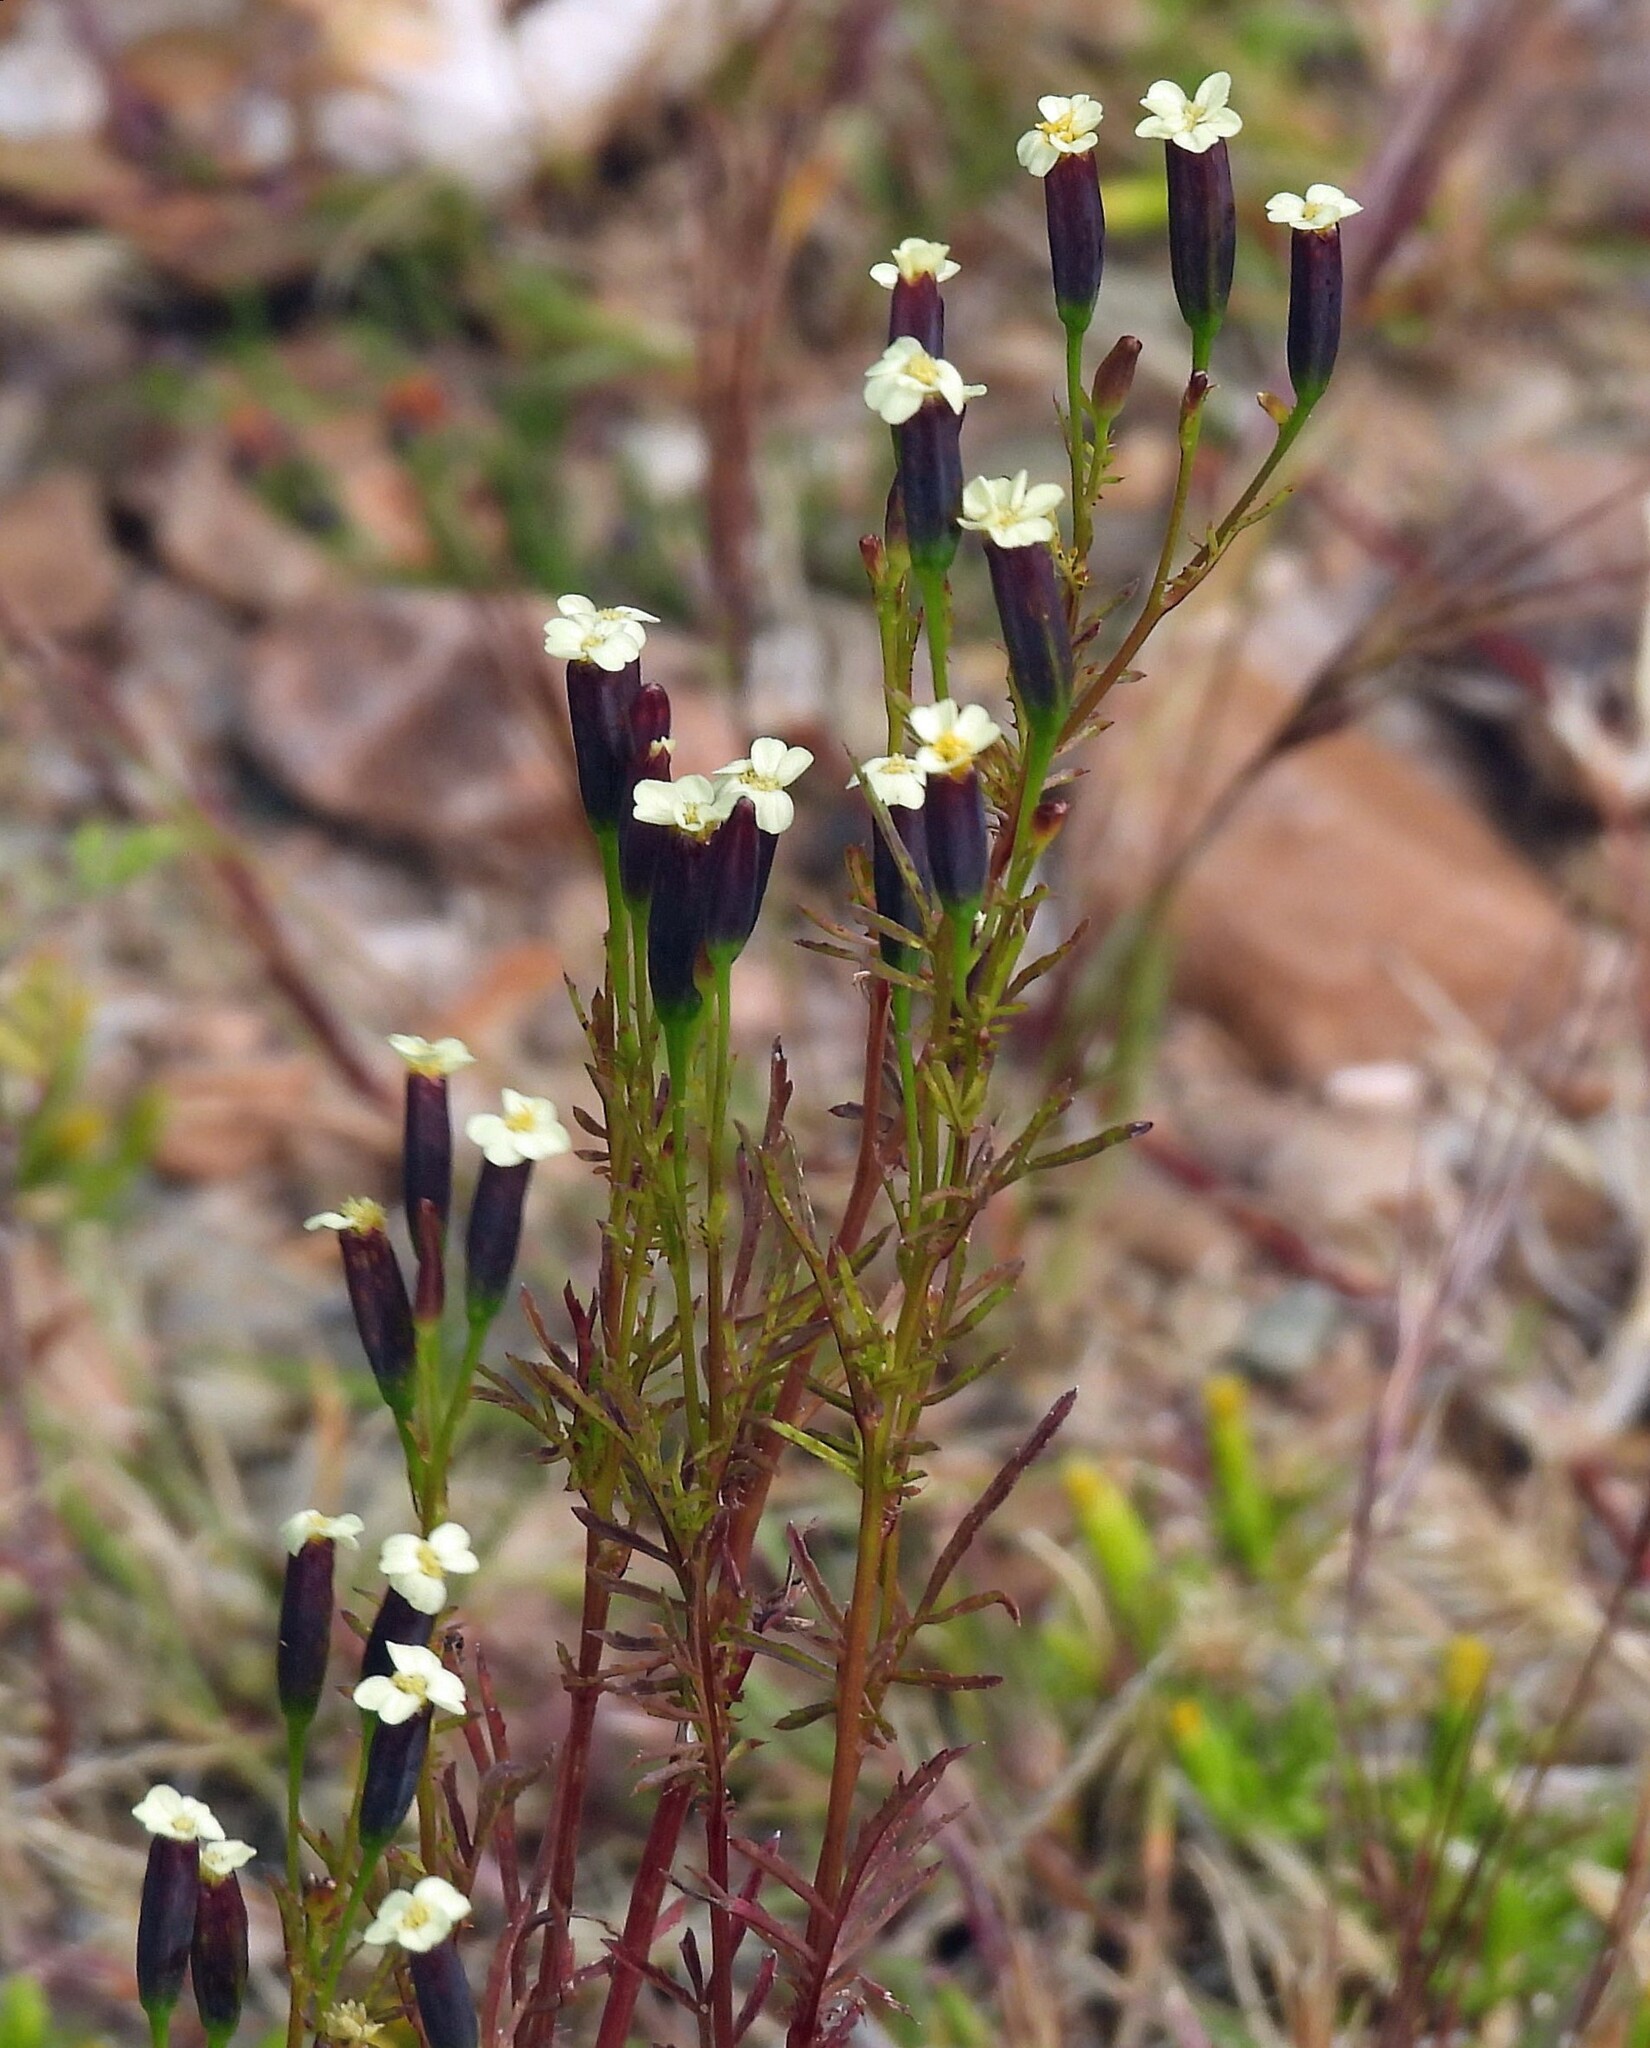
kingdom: Plantae
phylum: Tracheophyta
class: Magnoliopsida
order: Asterales
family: Asteraceae
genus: Tagetes
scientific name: Tagetes imbricata
